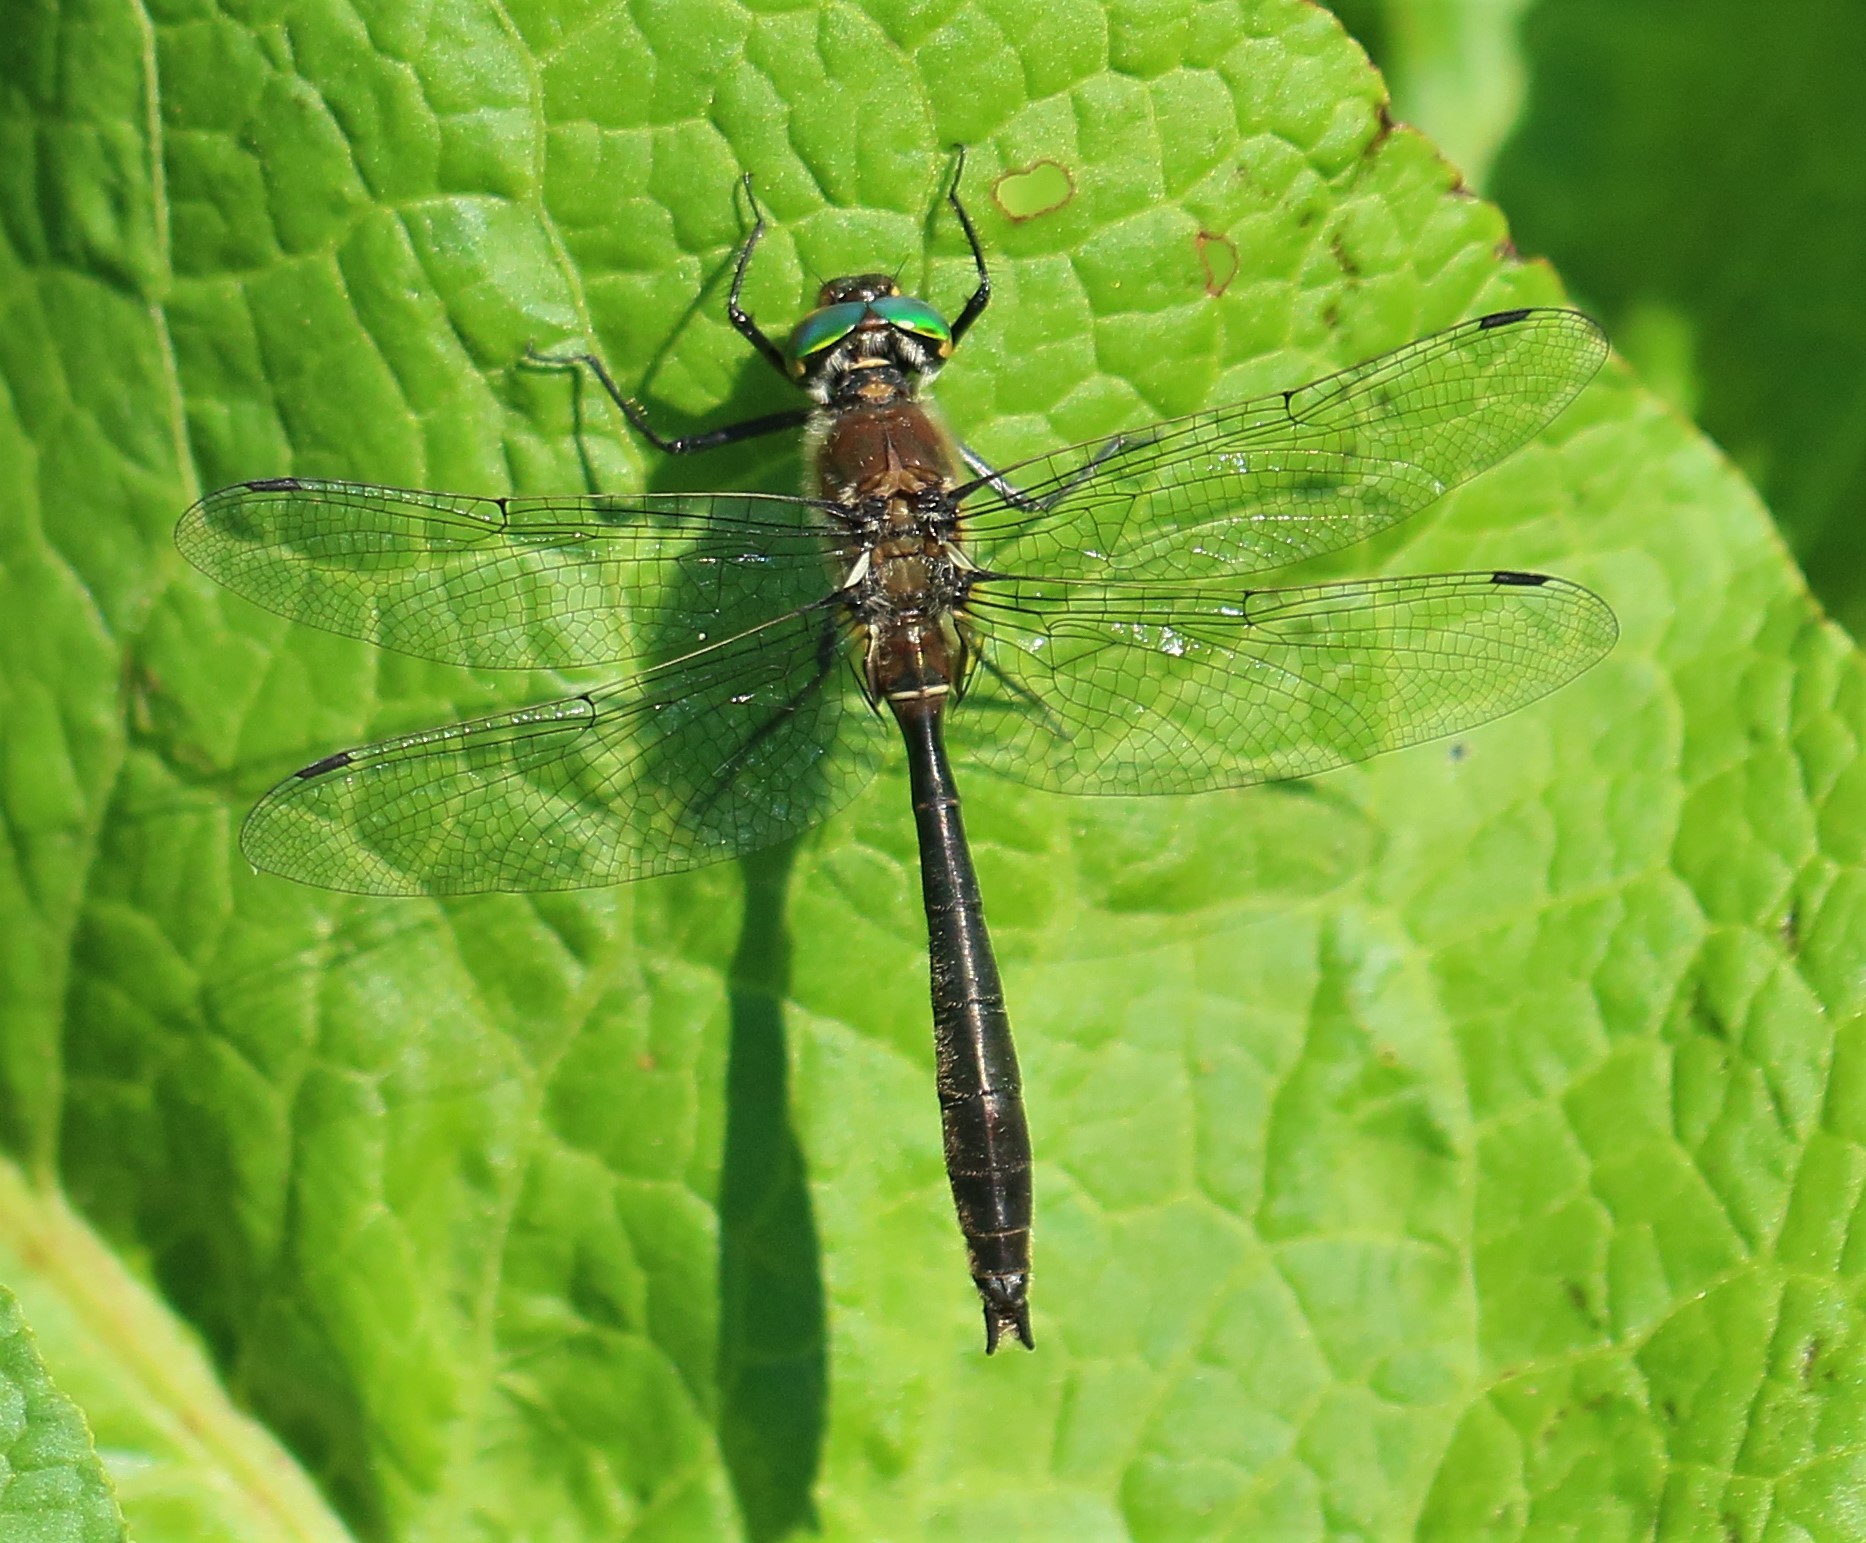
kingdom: Animalia
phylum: Arthropoda
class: Insecta
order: Odonata
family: Corduliidae
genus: Cordulia
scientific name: Cordulia shurtleffii
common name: American emerald
